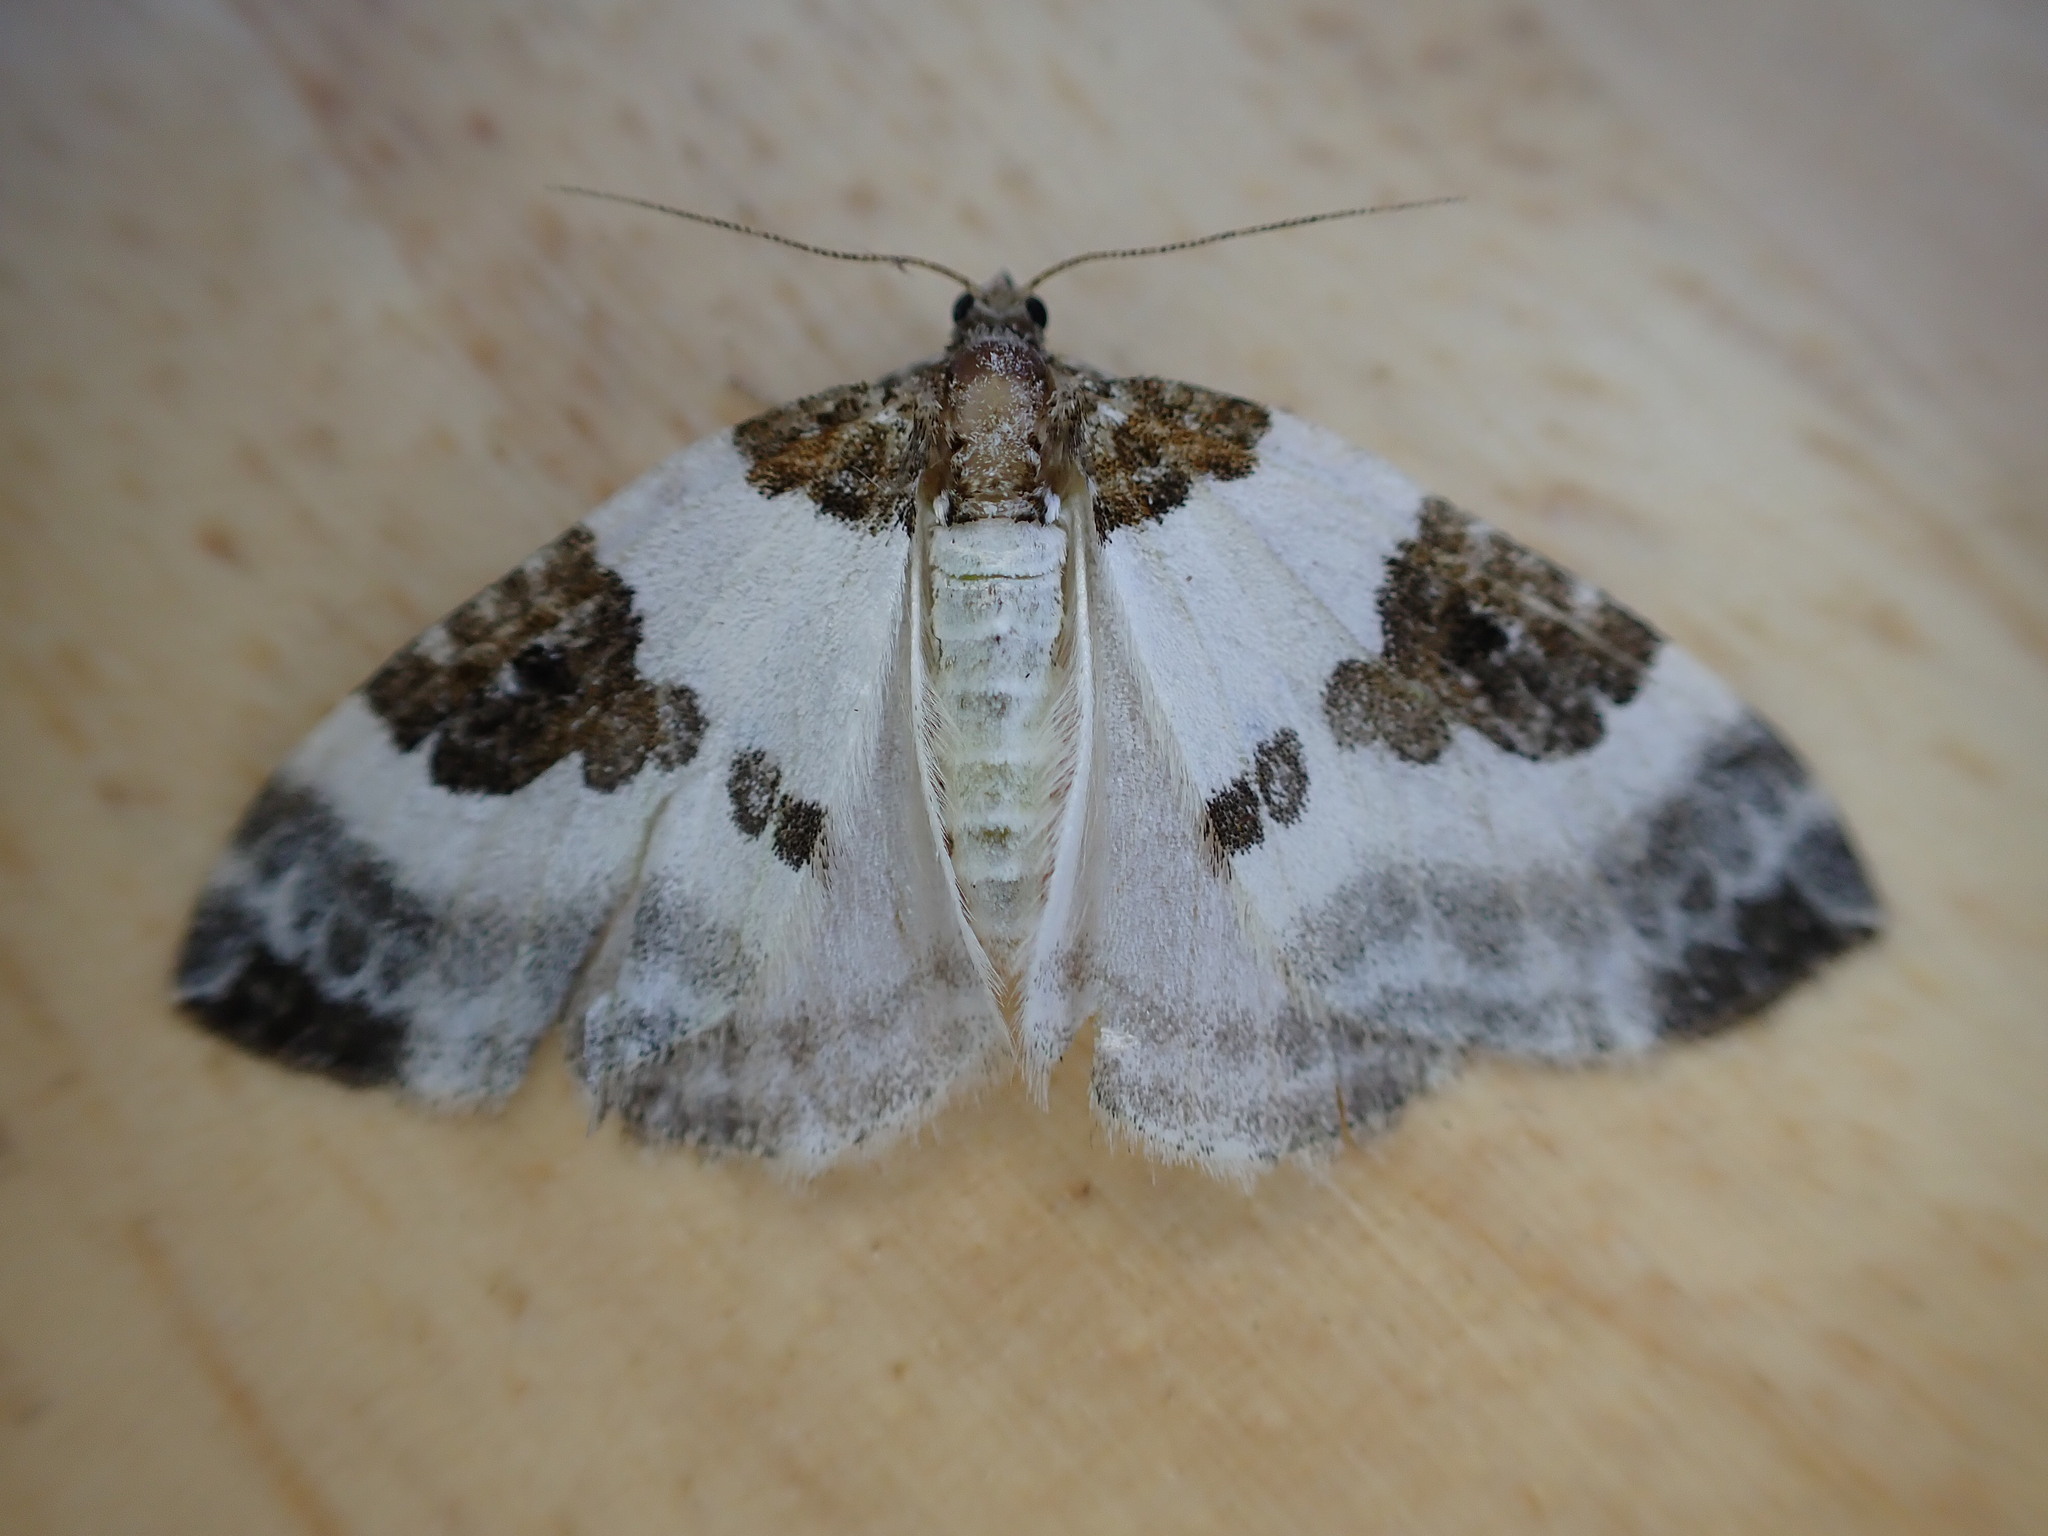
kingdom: Animalia
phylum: Arthropoda
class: Insecta
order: Lepidoptera
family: Geometridae
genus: Plemyria
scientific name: Plemyria rubiginata
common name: Blue-bordered carpet
